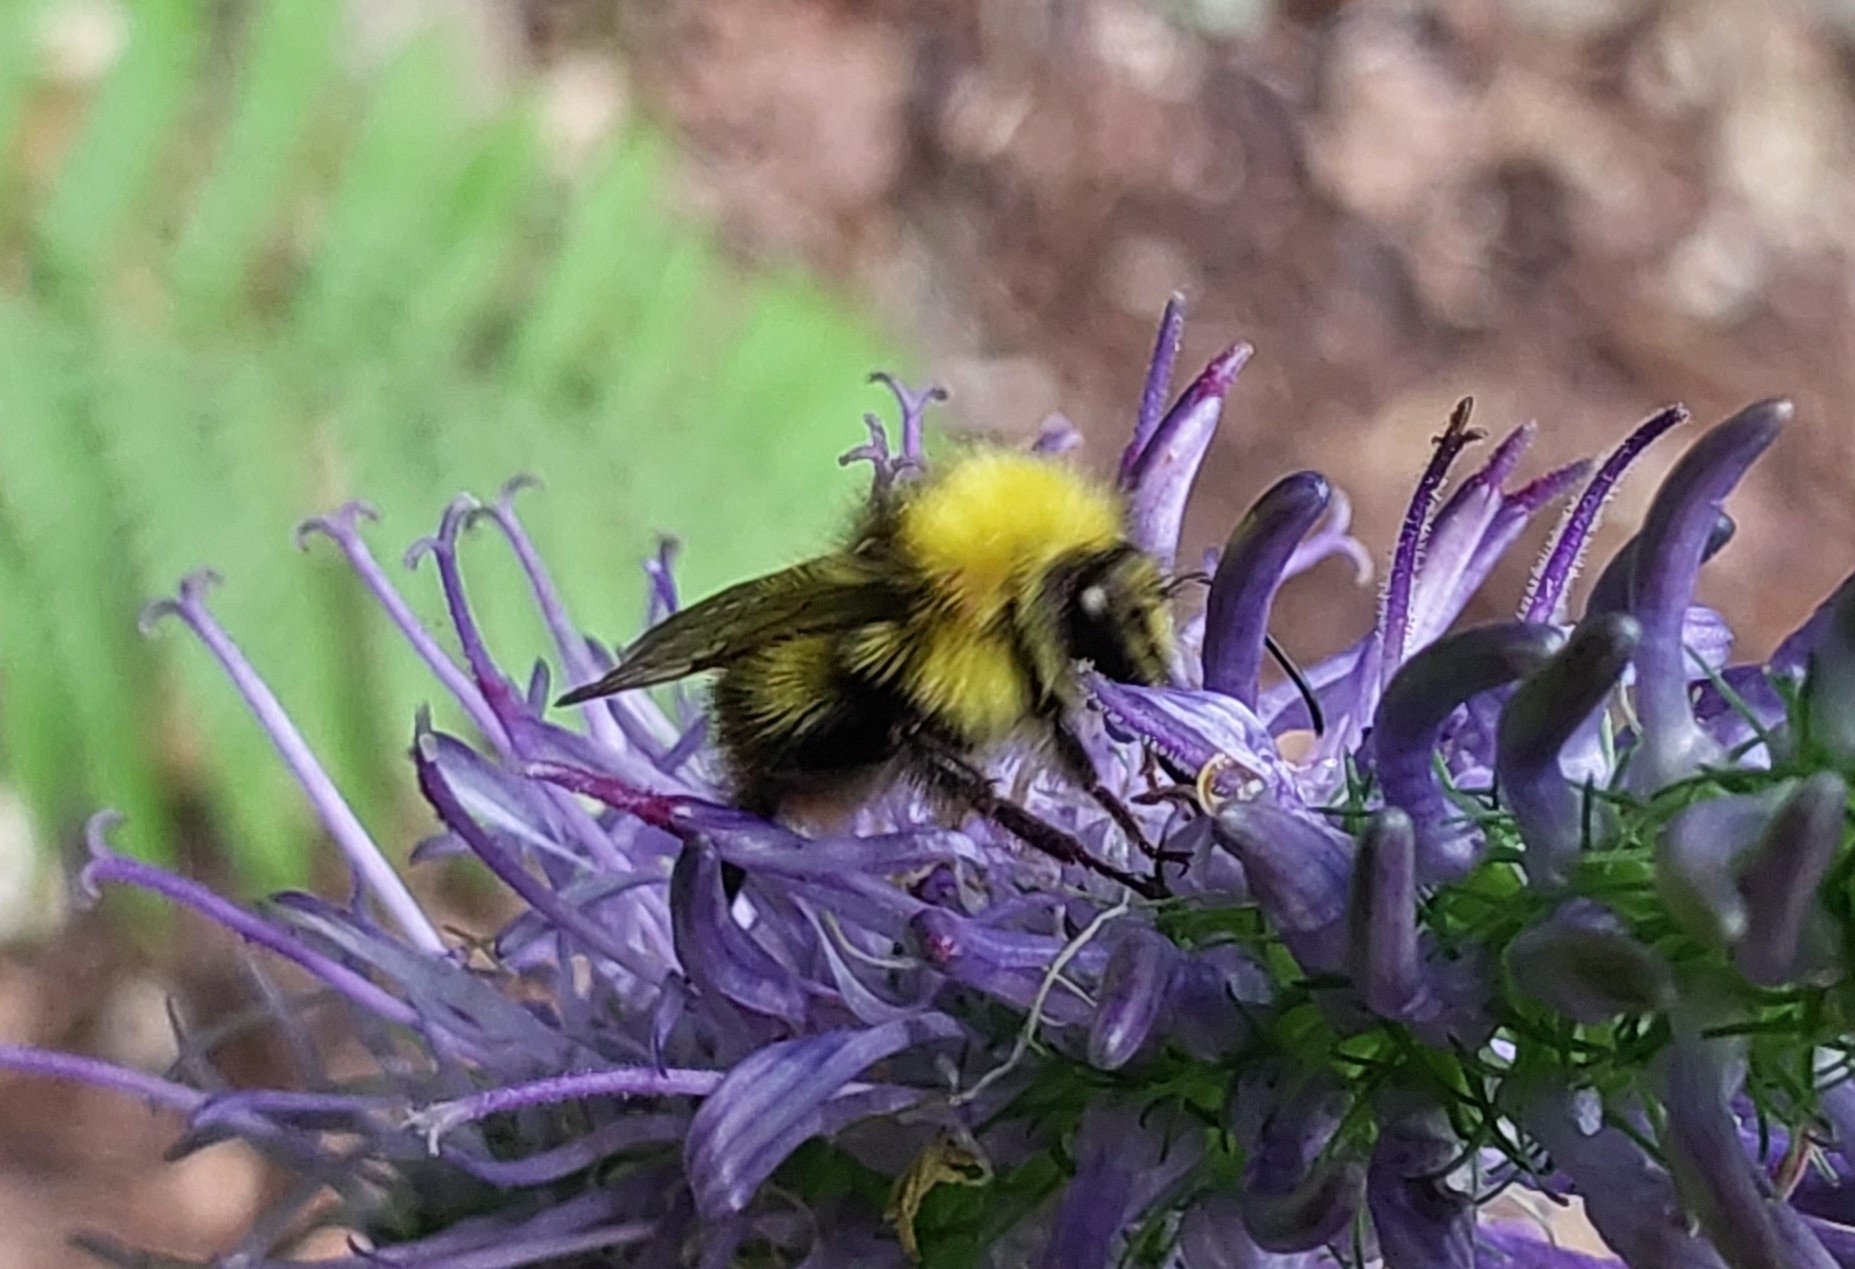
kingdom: Animalia
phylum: Arthropoda
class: Insecta
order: Hymenoptera
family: Apidae
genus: Bombus
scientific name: Bombus pratorum
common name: Early humble-bee
